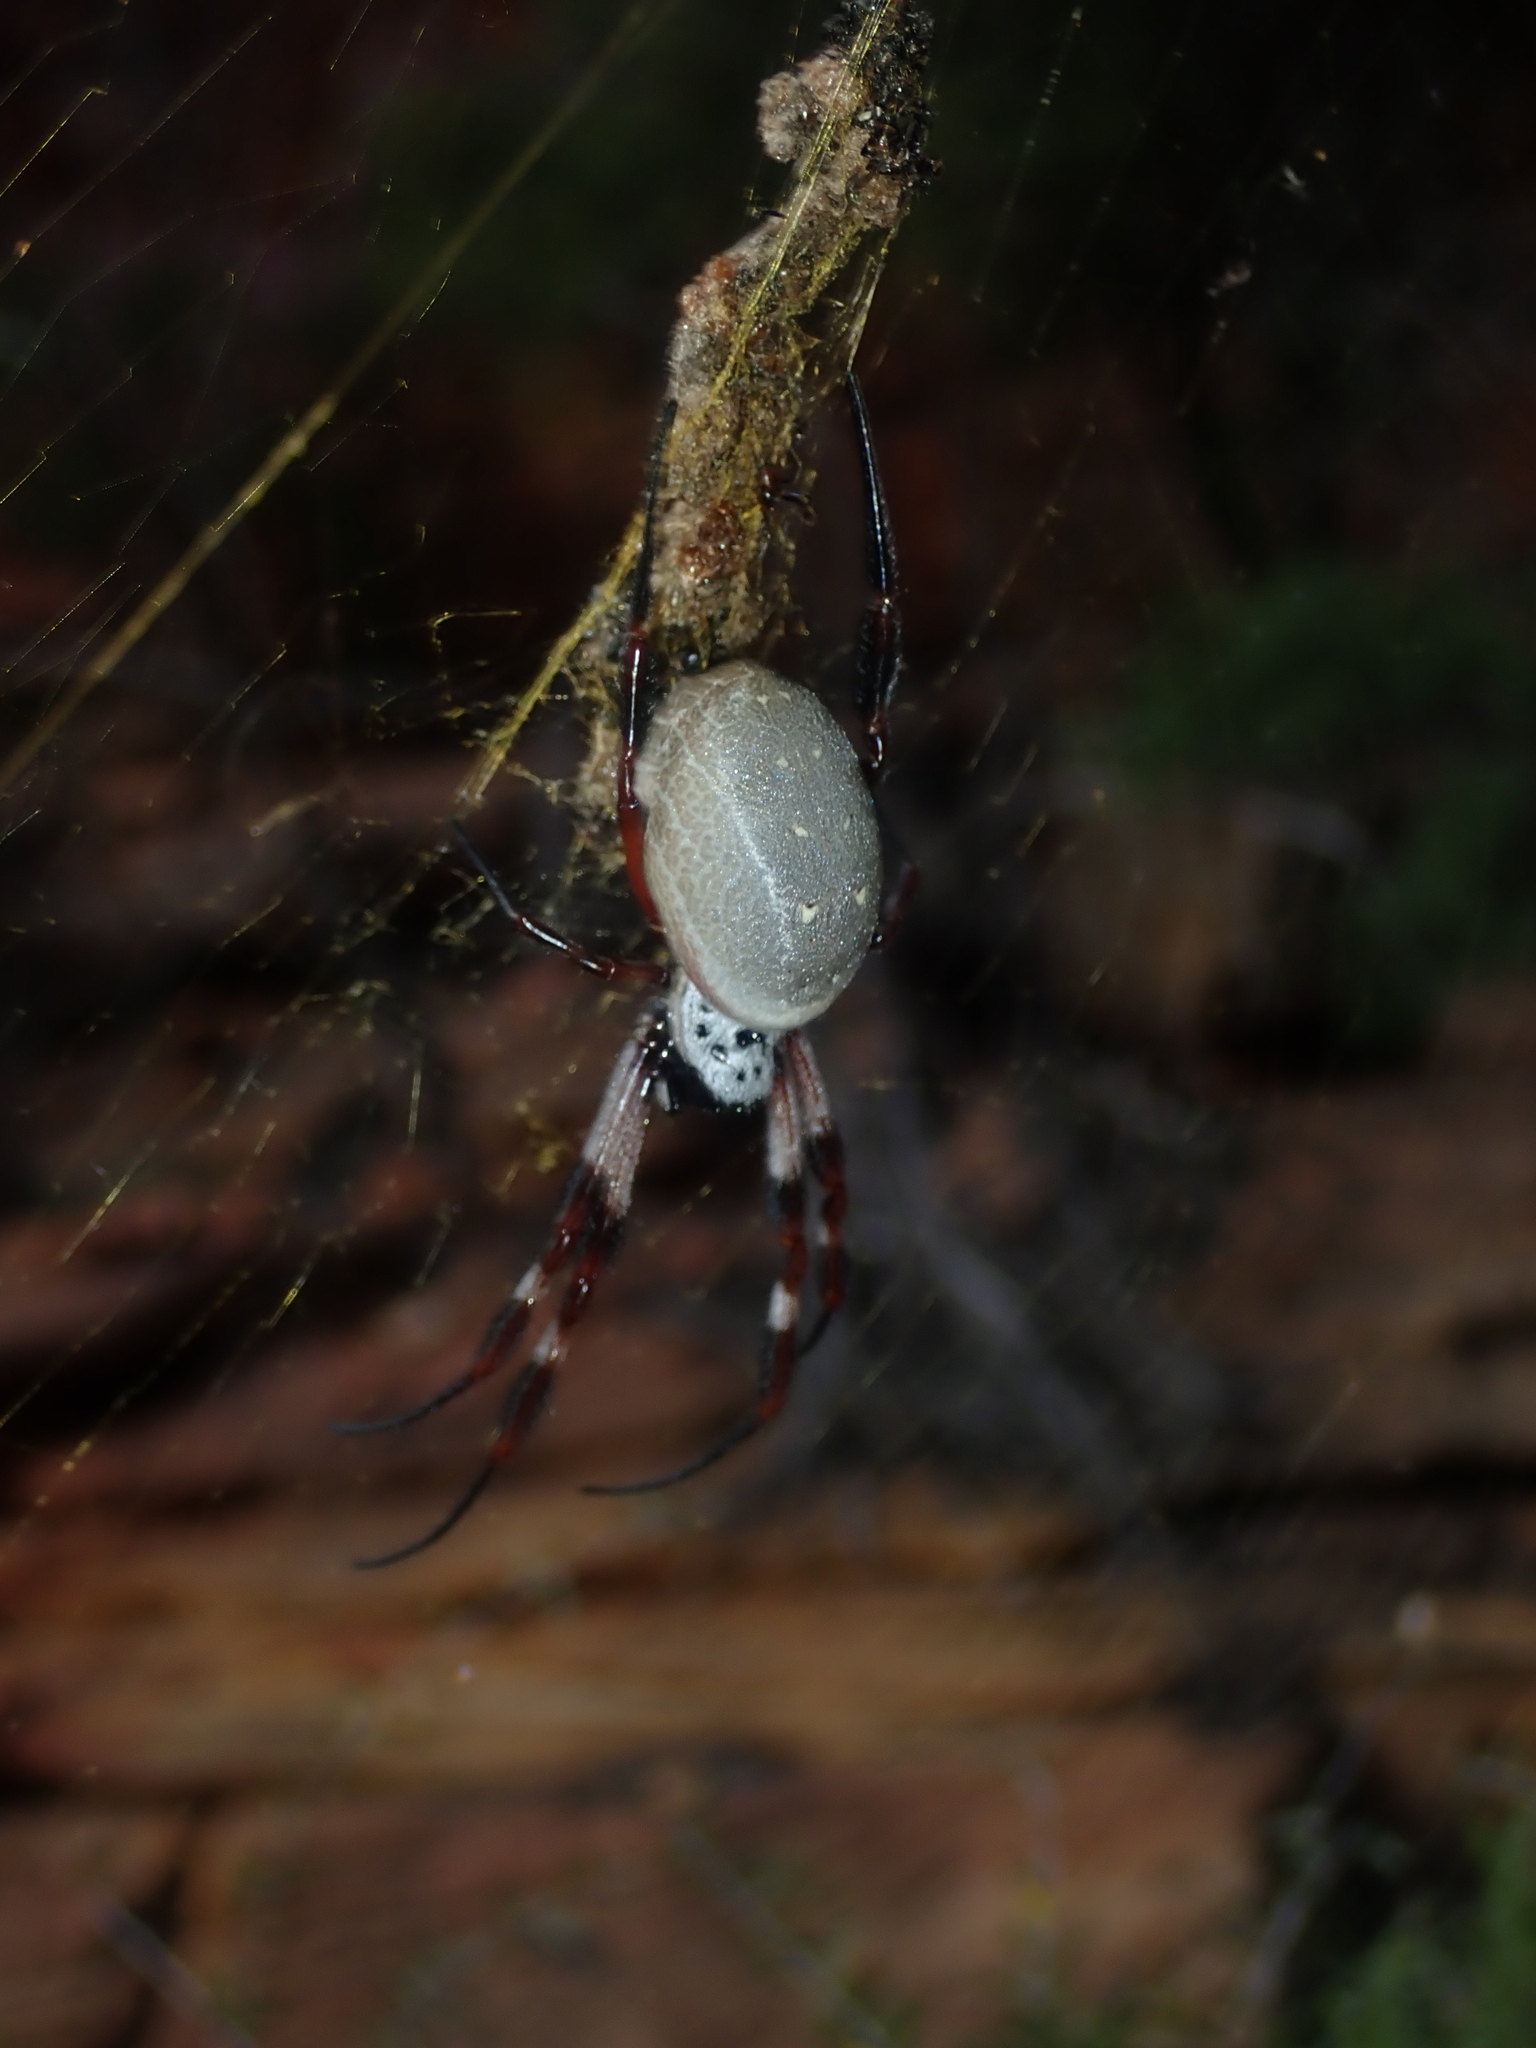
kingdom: Animalia
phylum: Arthropoda
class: Arachnida
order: Araneae
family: Araneidae
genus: Trichonephila
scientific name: Trichonephila edulis
